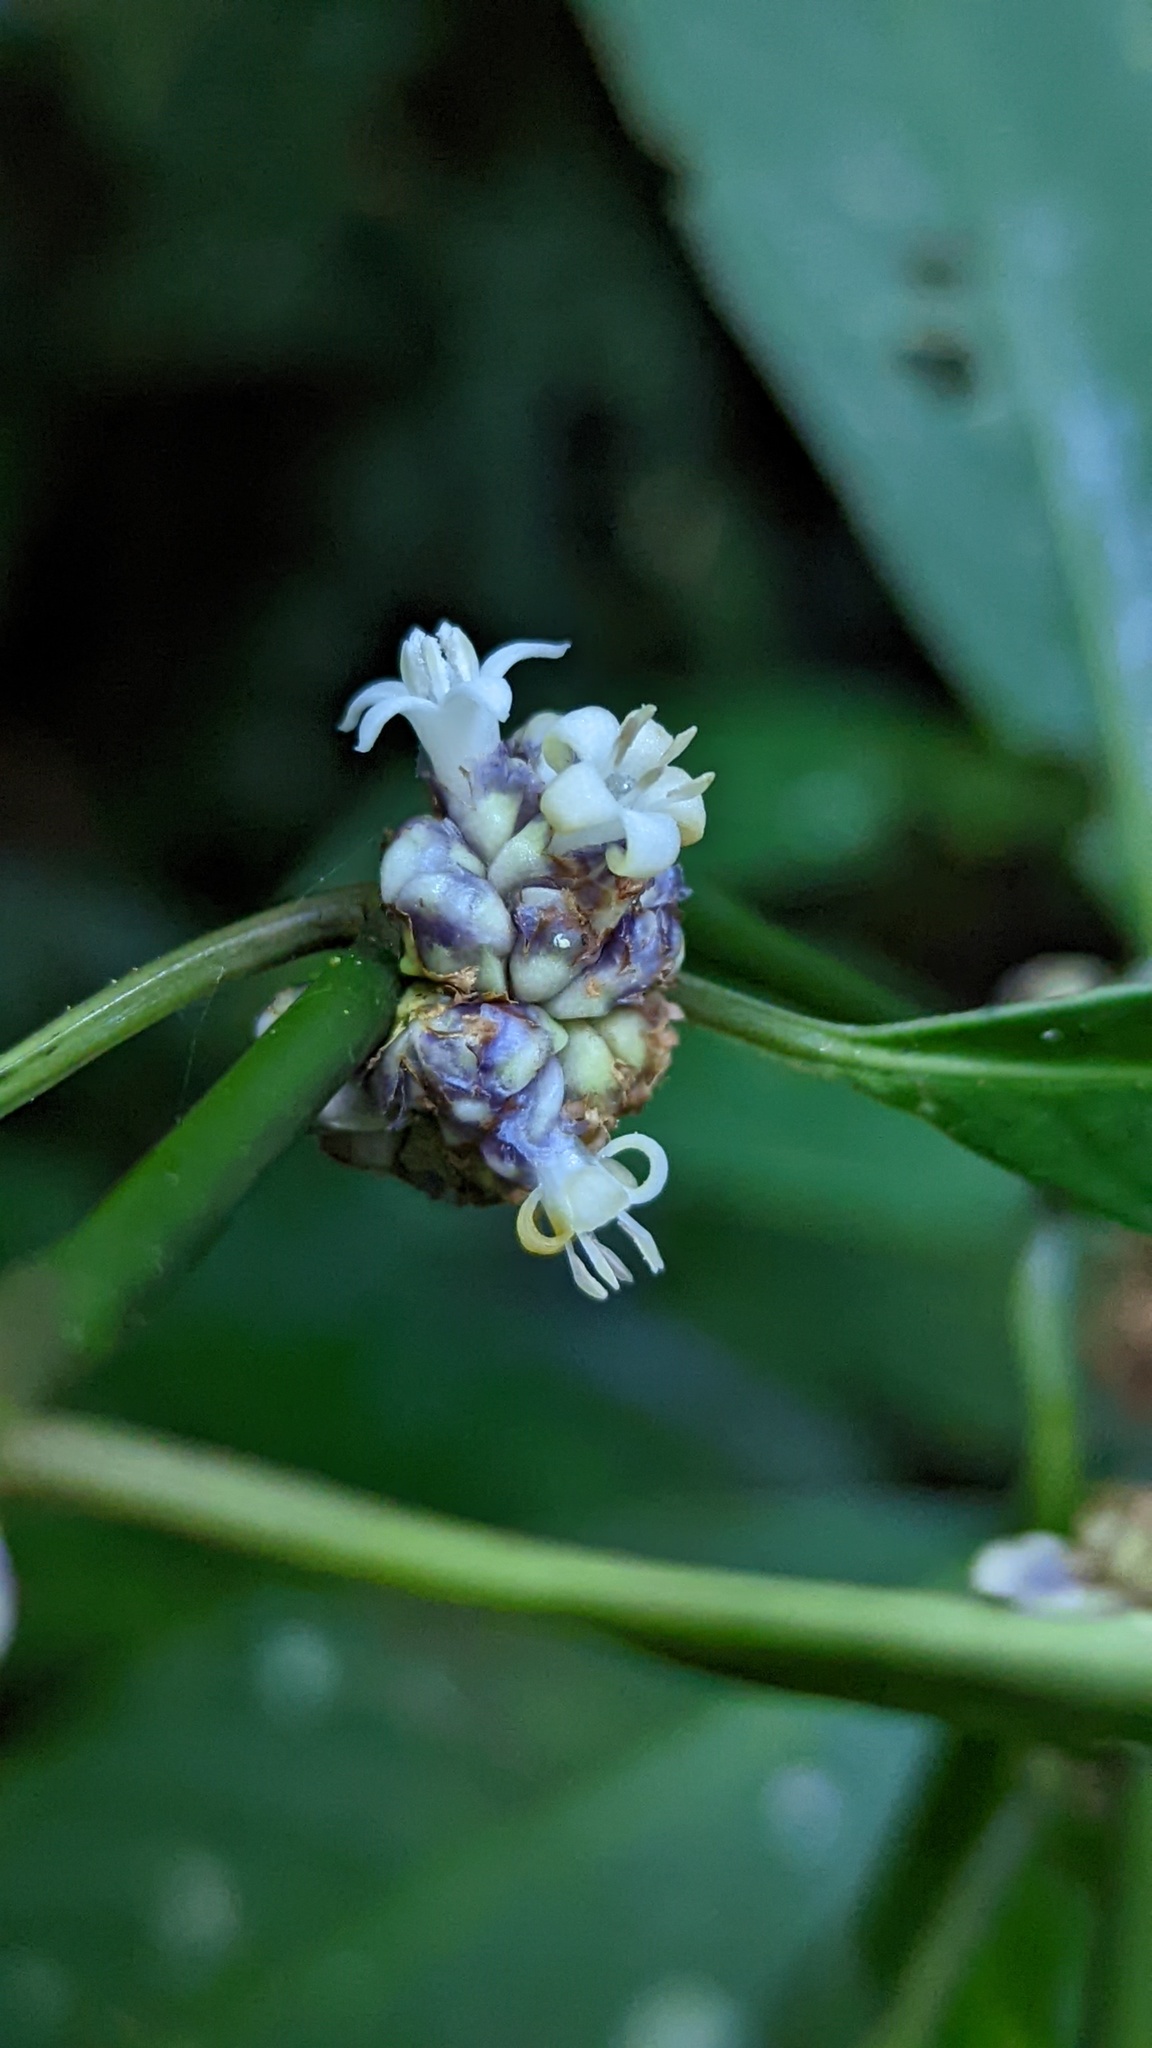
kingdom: Plantae
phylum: Tracheophyta
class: Magnoliopsida
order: Gentianales
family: Rubiaceae
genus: Palicourea
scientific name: Palicourea axillaris
